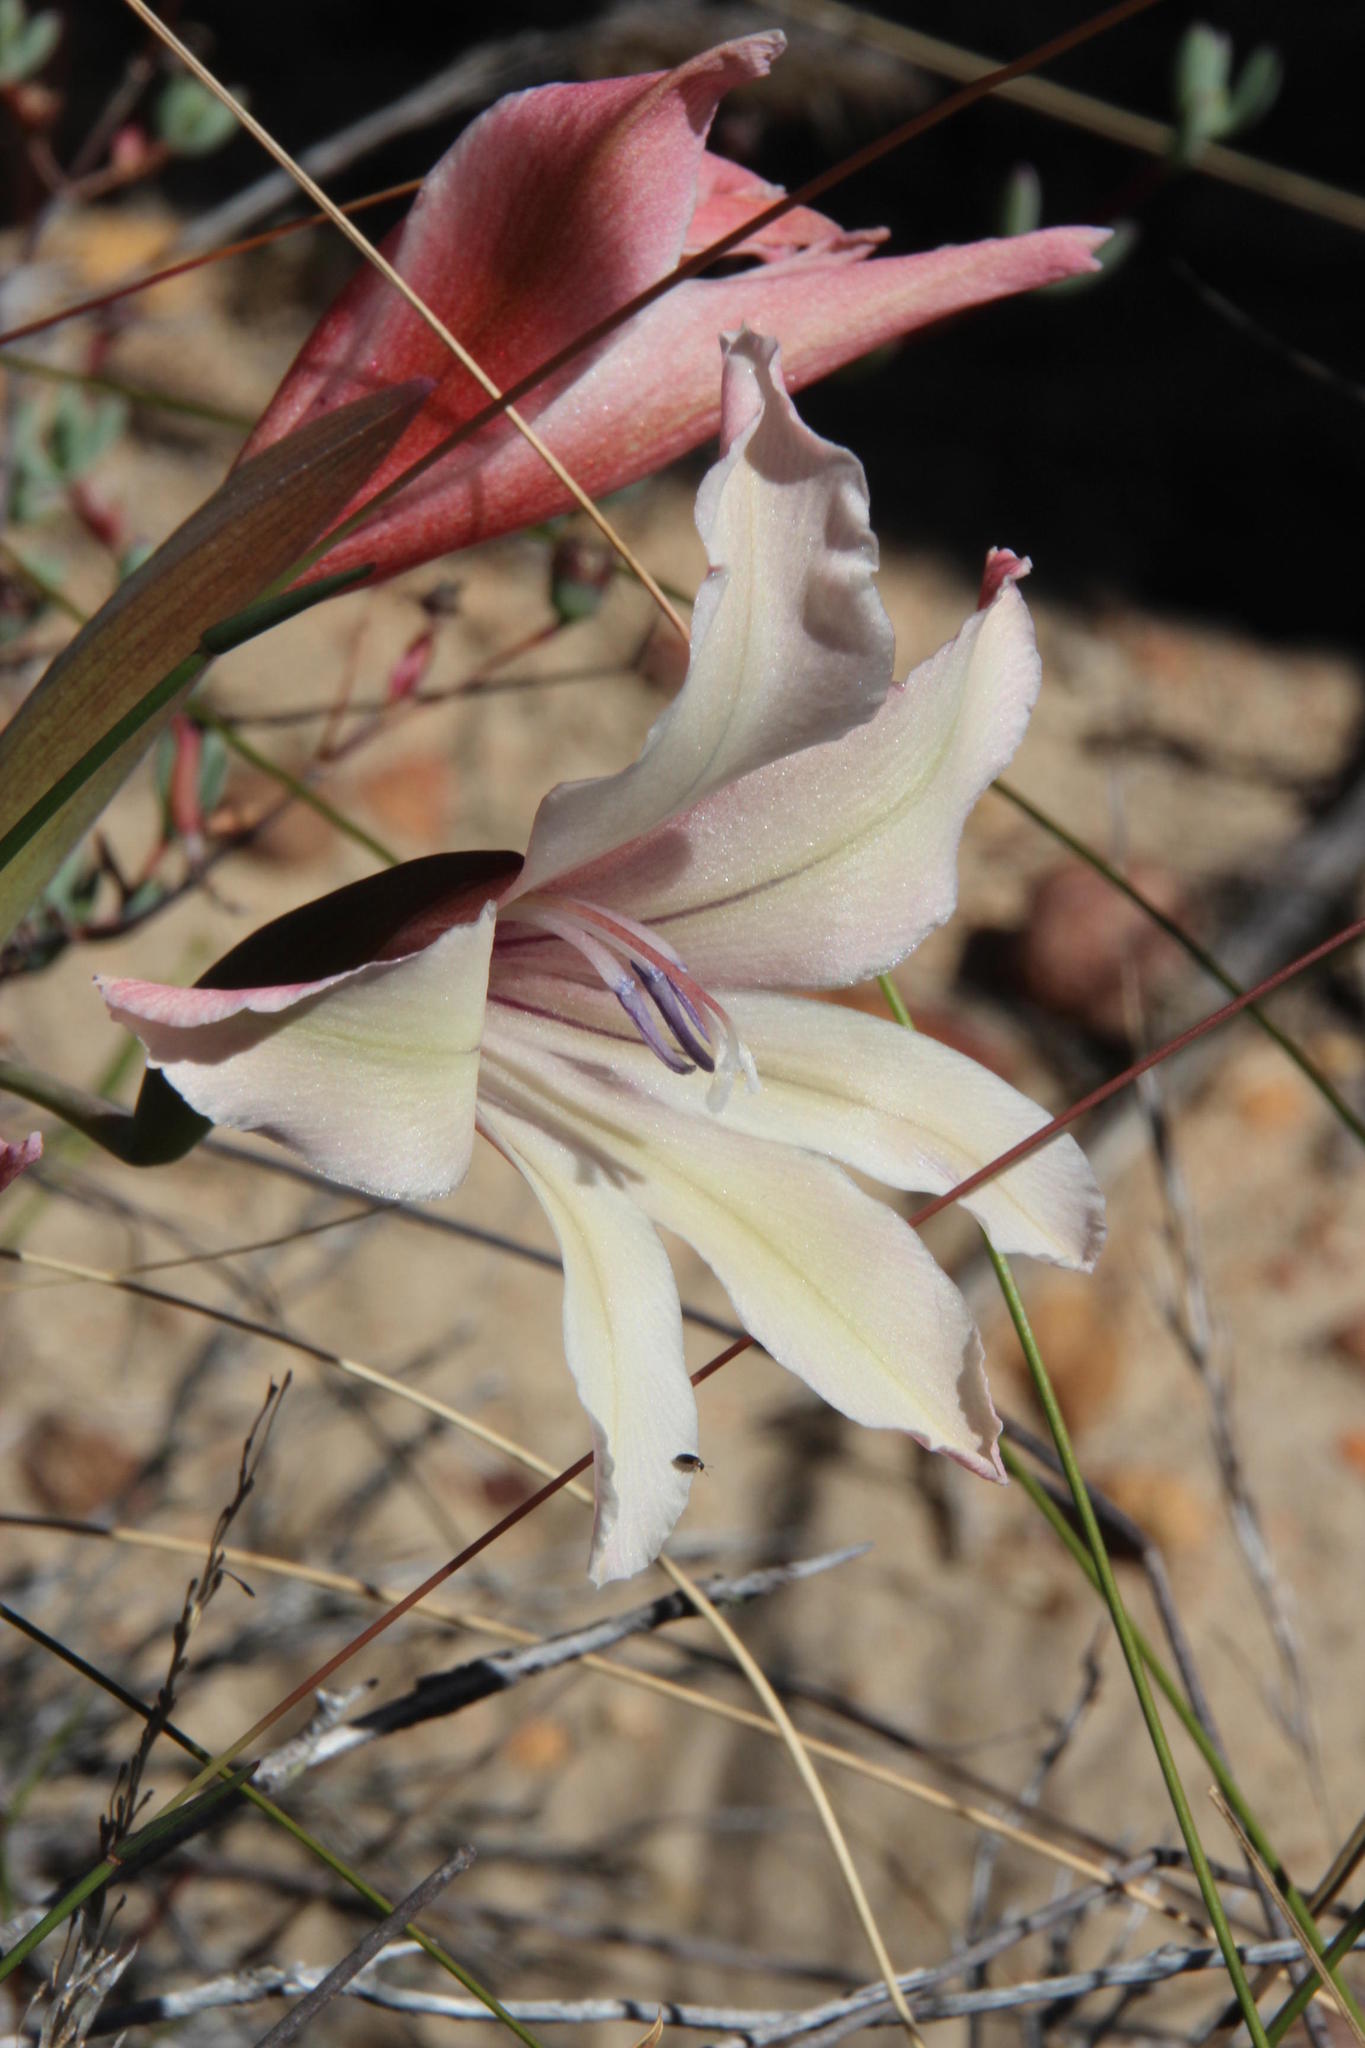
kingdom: Plantae
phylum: Tracheophyta
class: Liliopsida
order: Asparagales
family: Iridaceae
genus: Gladiolus
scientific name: Gladiolus carneus
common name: Painted-lady
